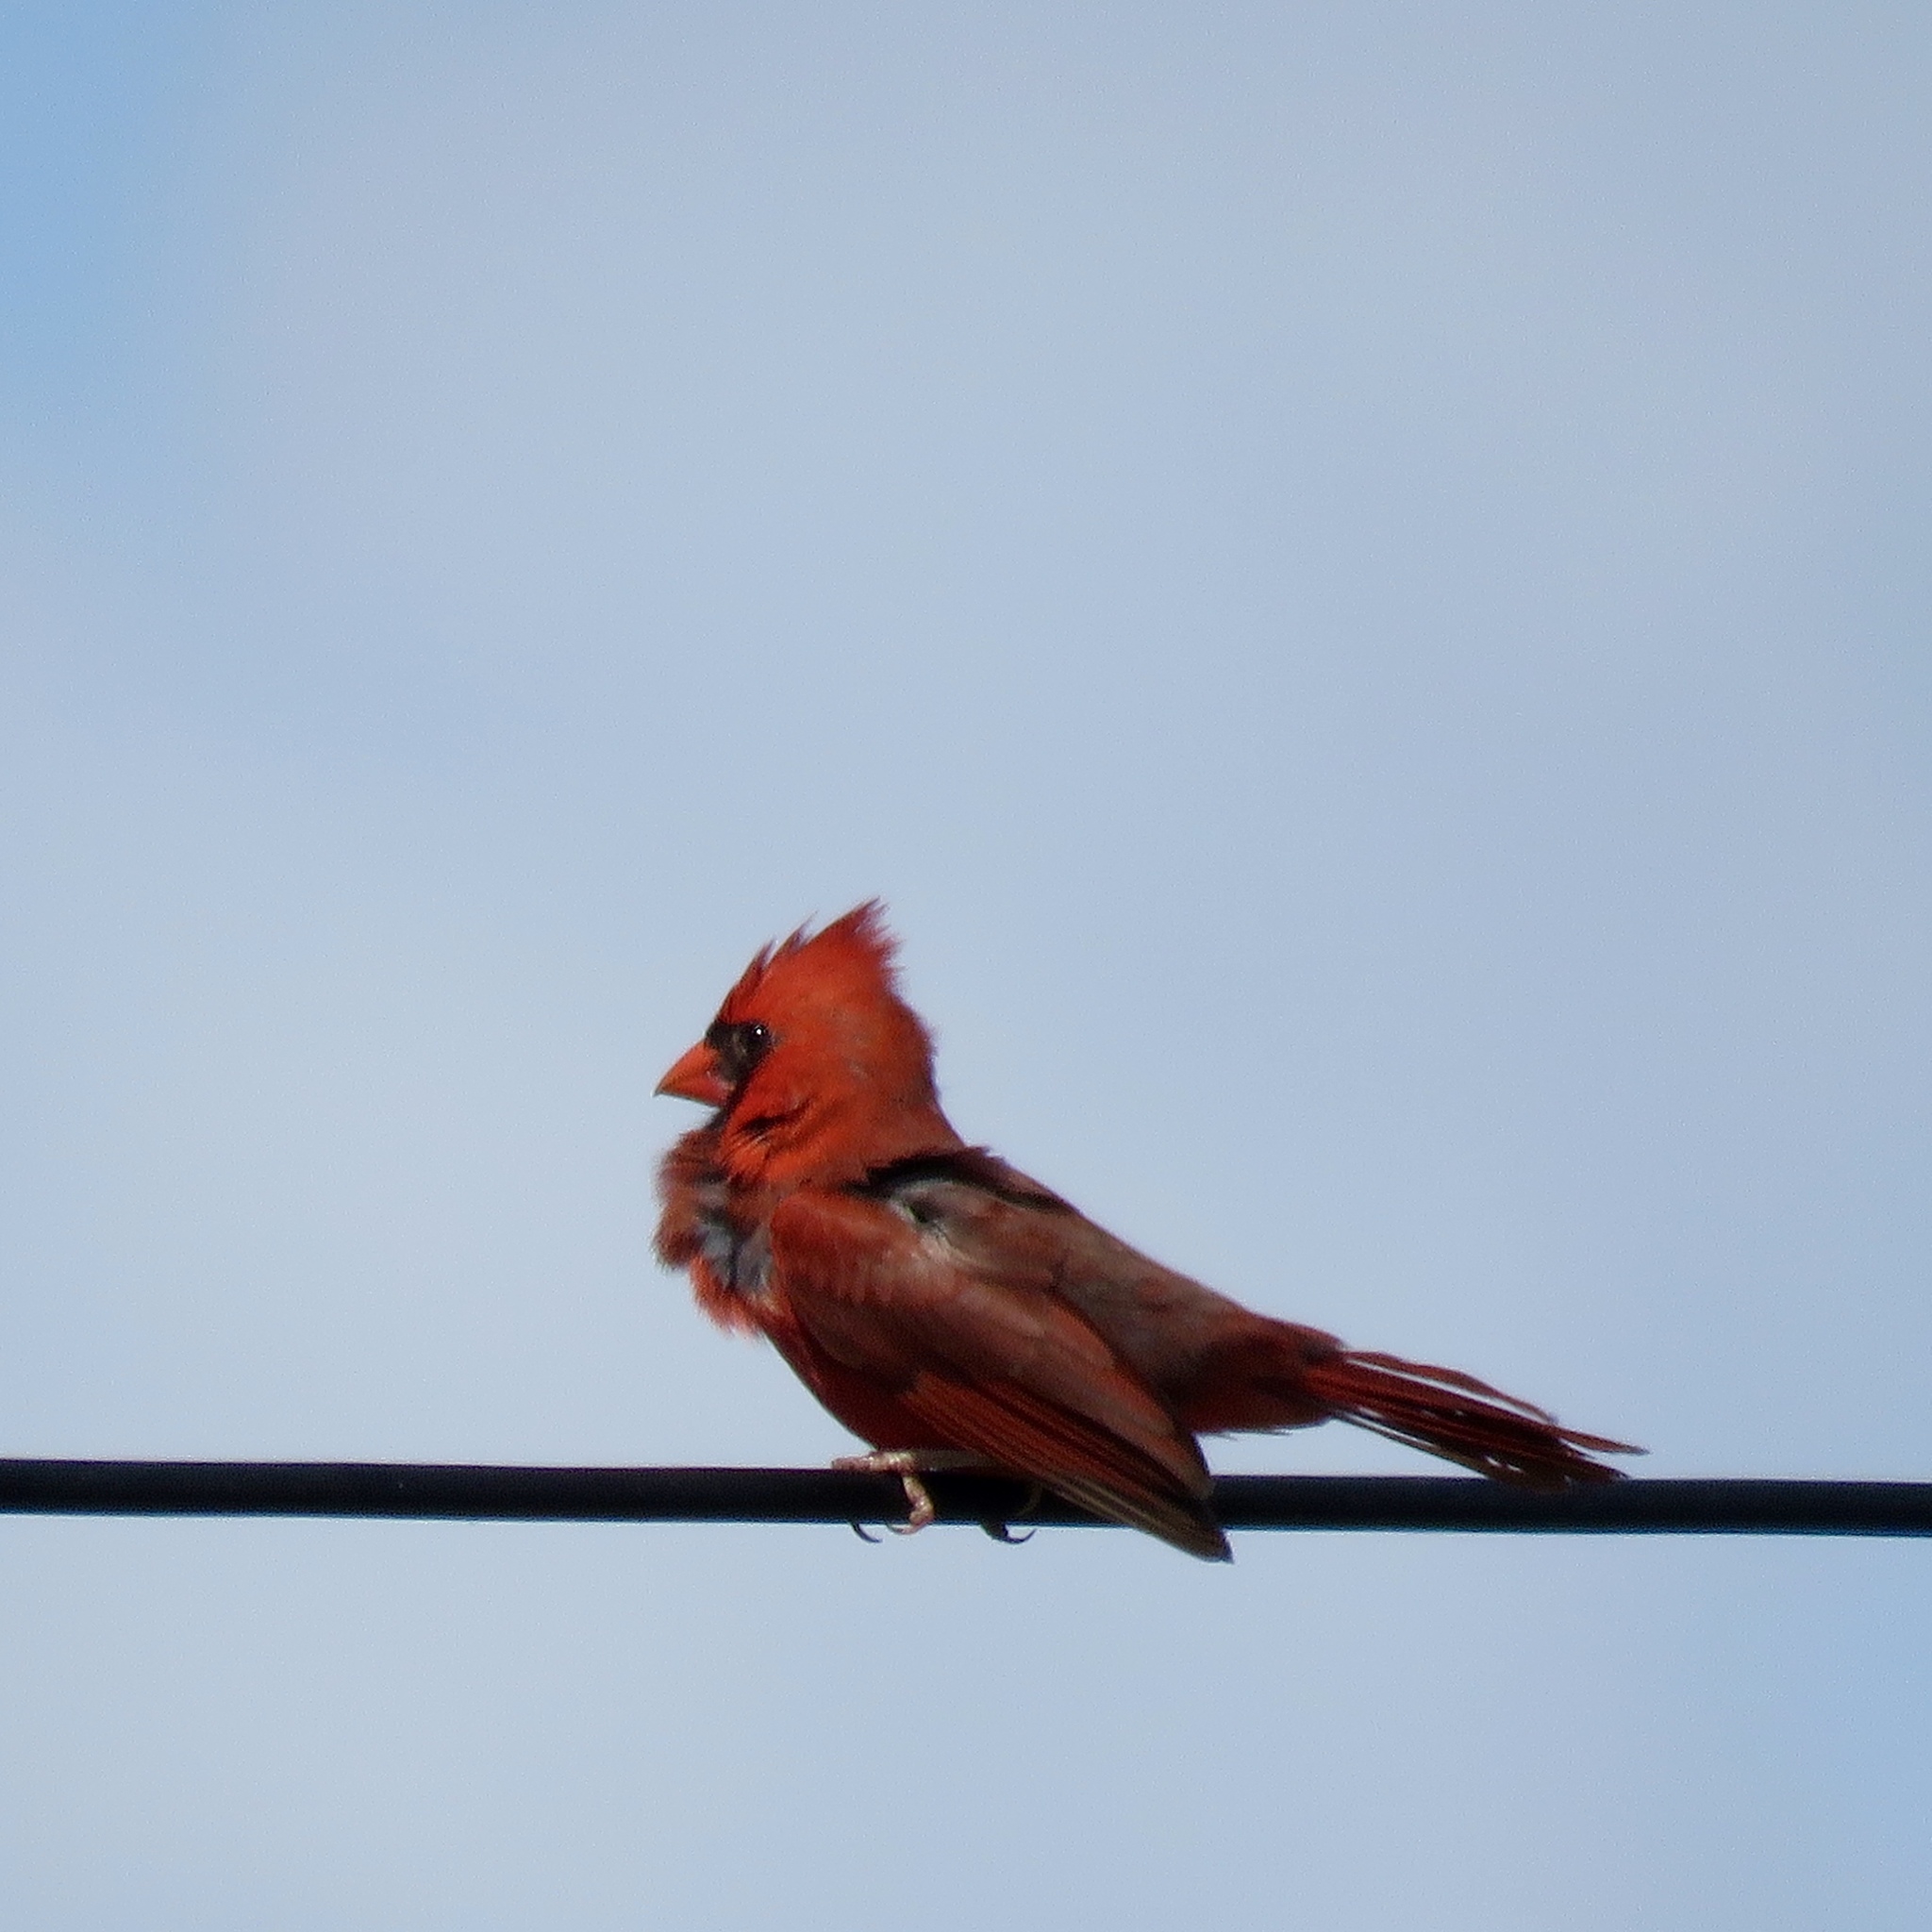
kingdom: Animalia
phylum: Chordata
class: Aves
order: Passeriformes
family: Cardinalidae
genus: Cardinalis
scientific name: Cardinalis cardinalis
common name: Northern cardinal
